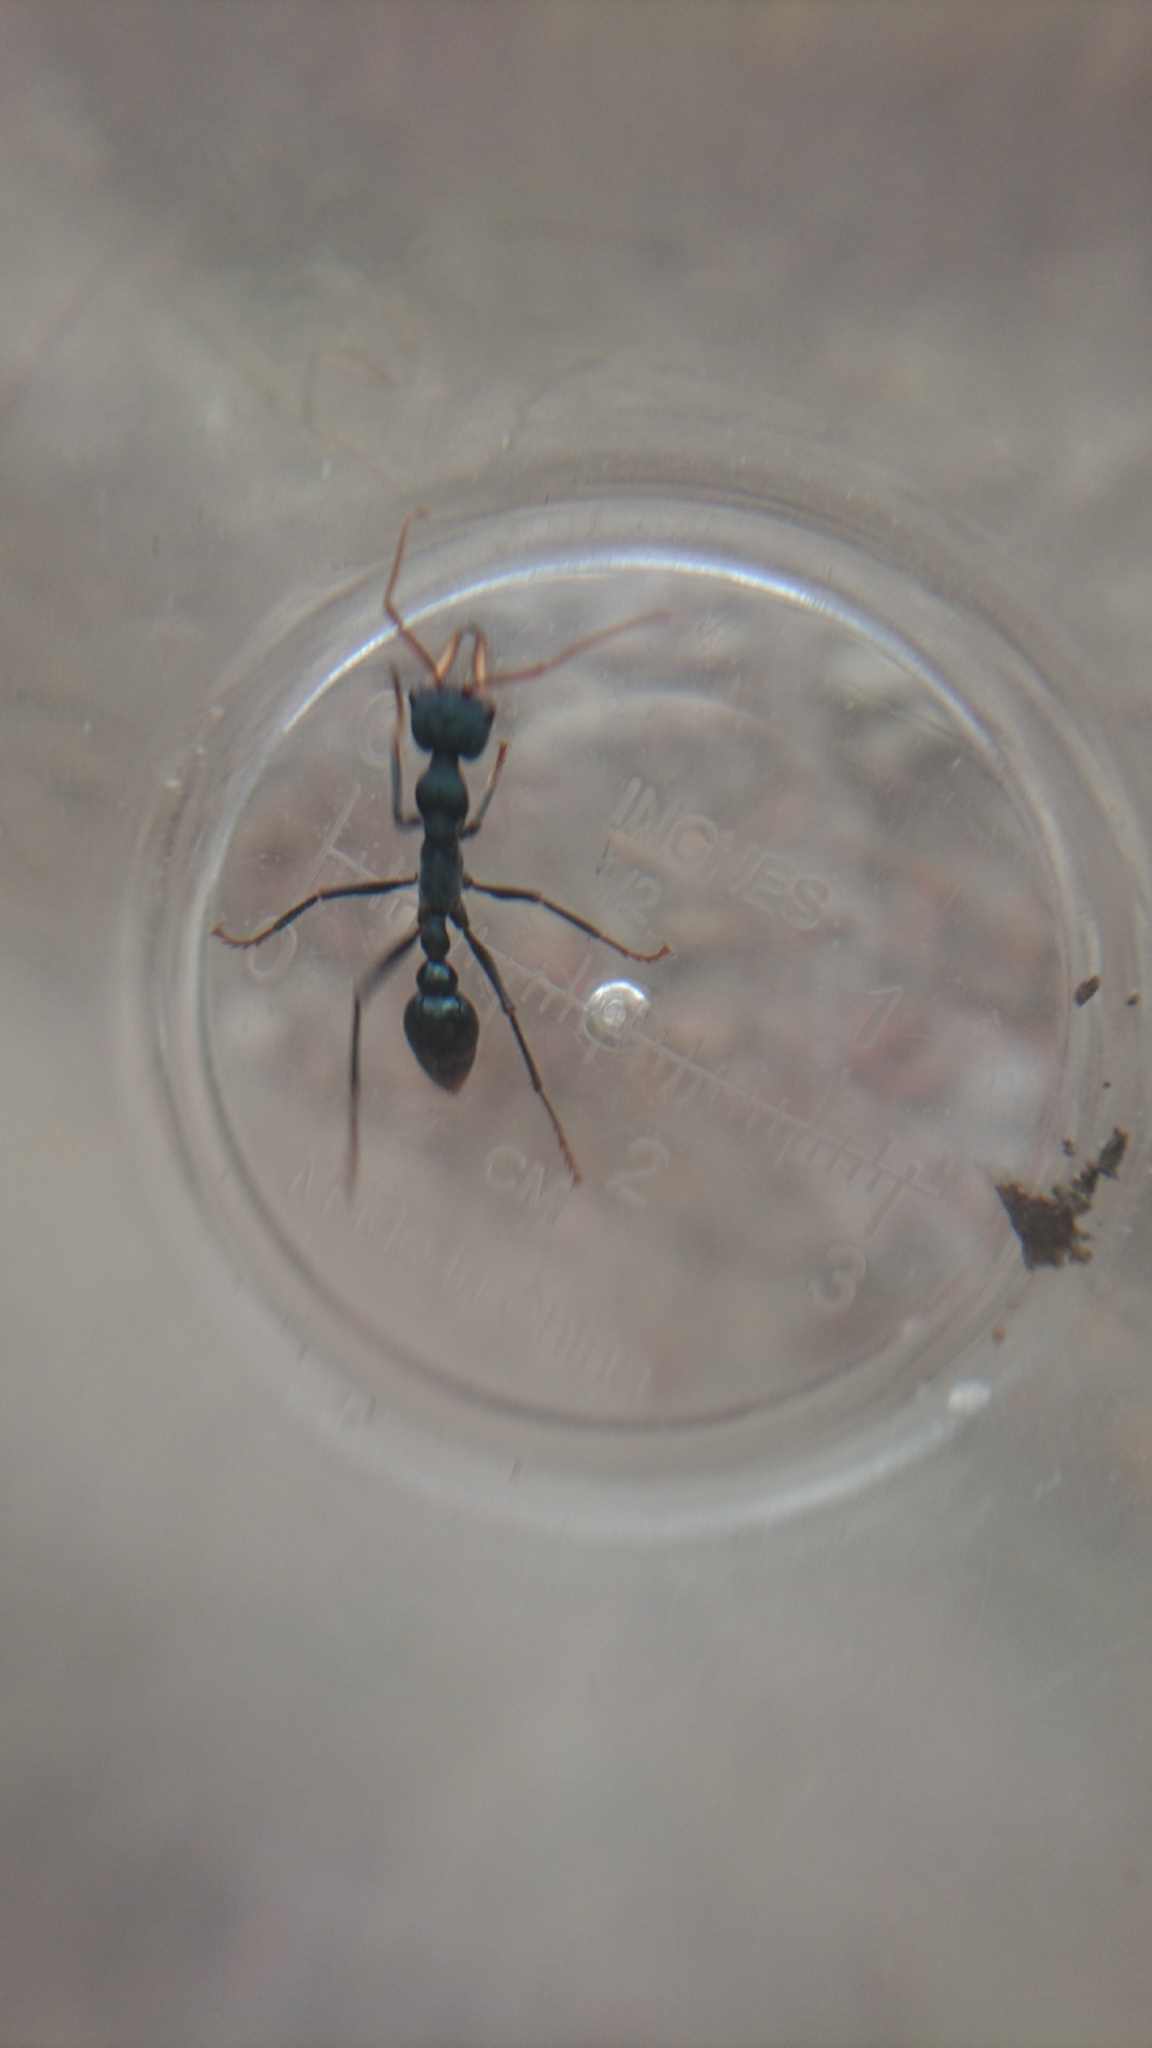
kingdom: Animalia
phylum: Arthropoda
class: Insecta
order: Hymenoptera
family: Formicidae
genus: Myrmecia
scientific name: Myrmecia tarsata
